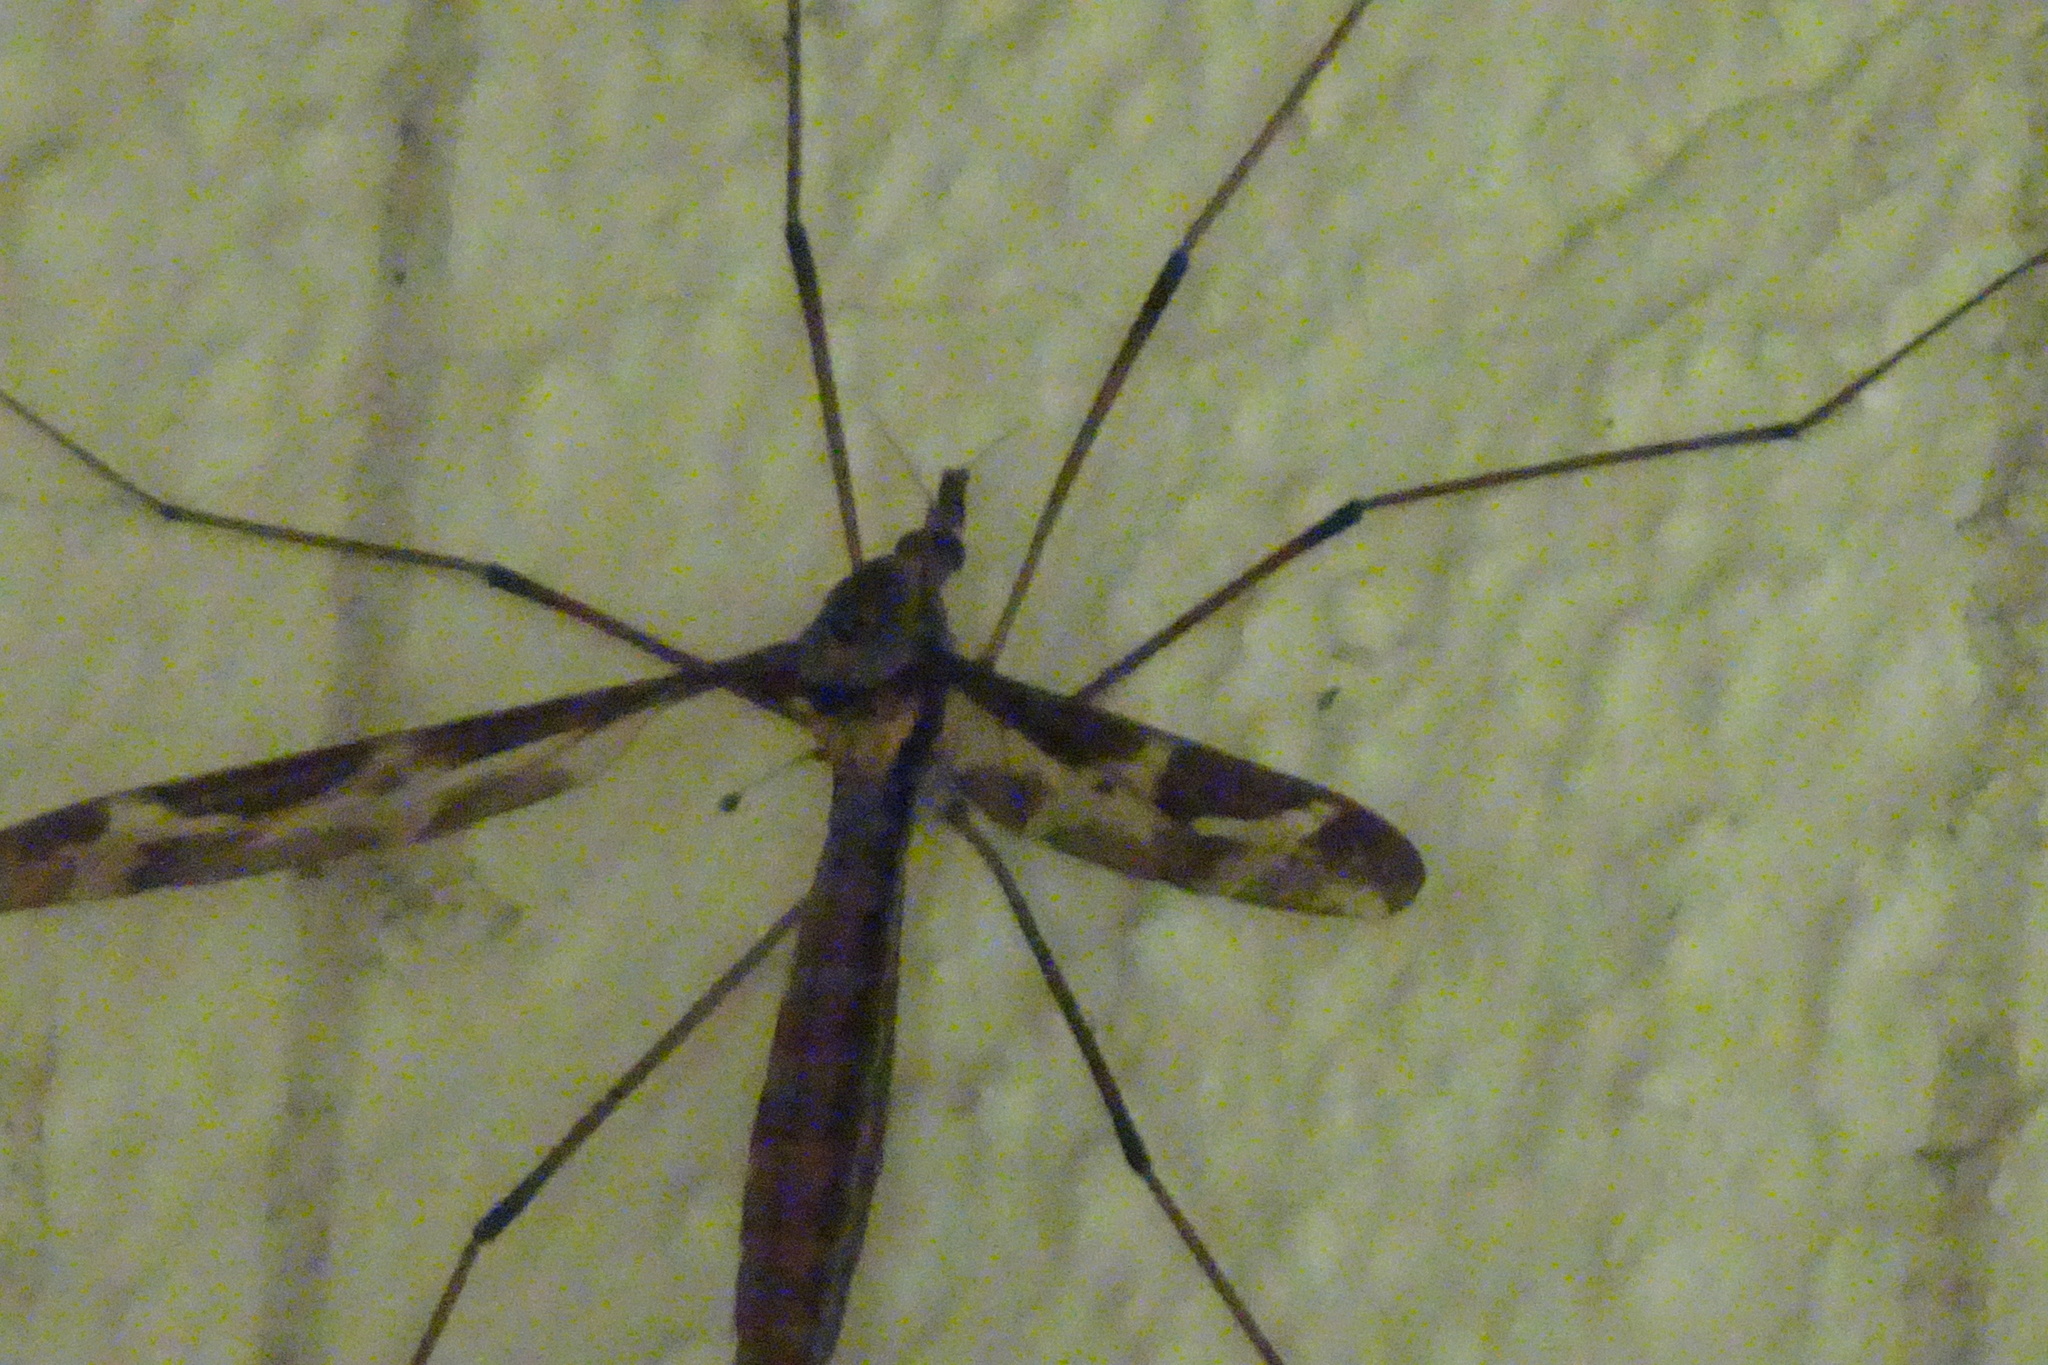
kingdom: Animalia
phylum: Arthropoda
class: Insecta
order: Diptera
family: Tipulidae
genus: Tipula
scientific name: Tipula maxima
